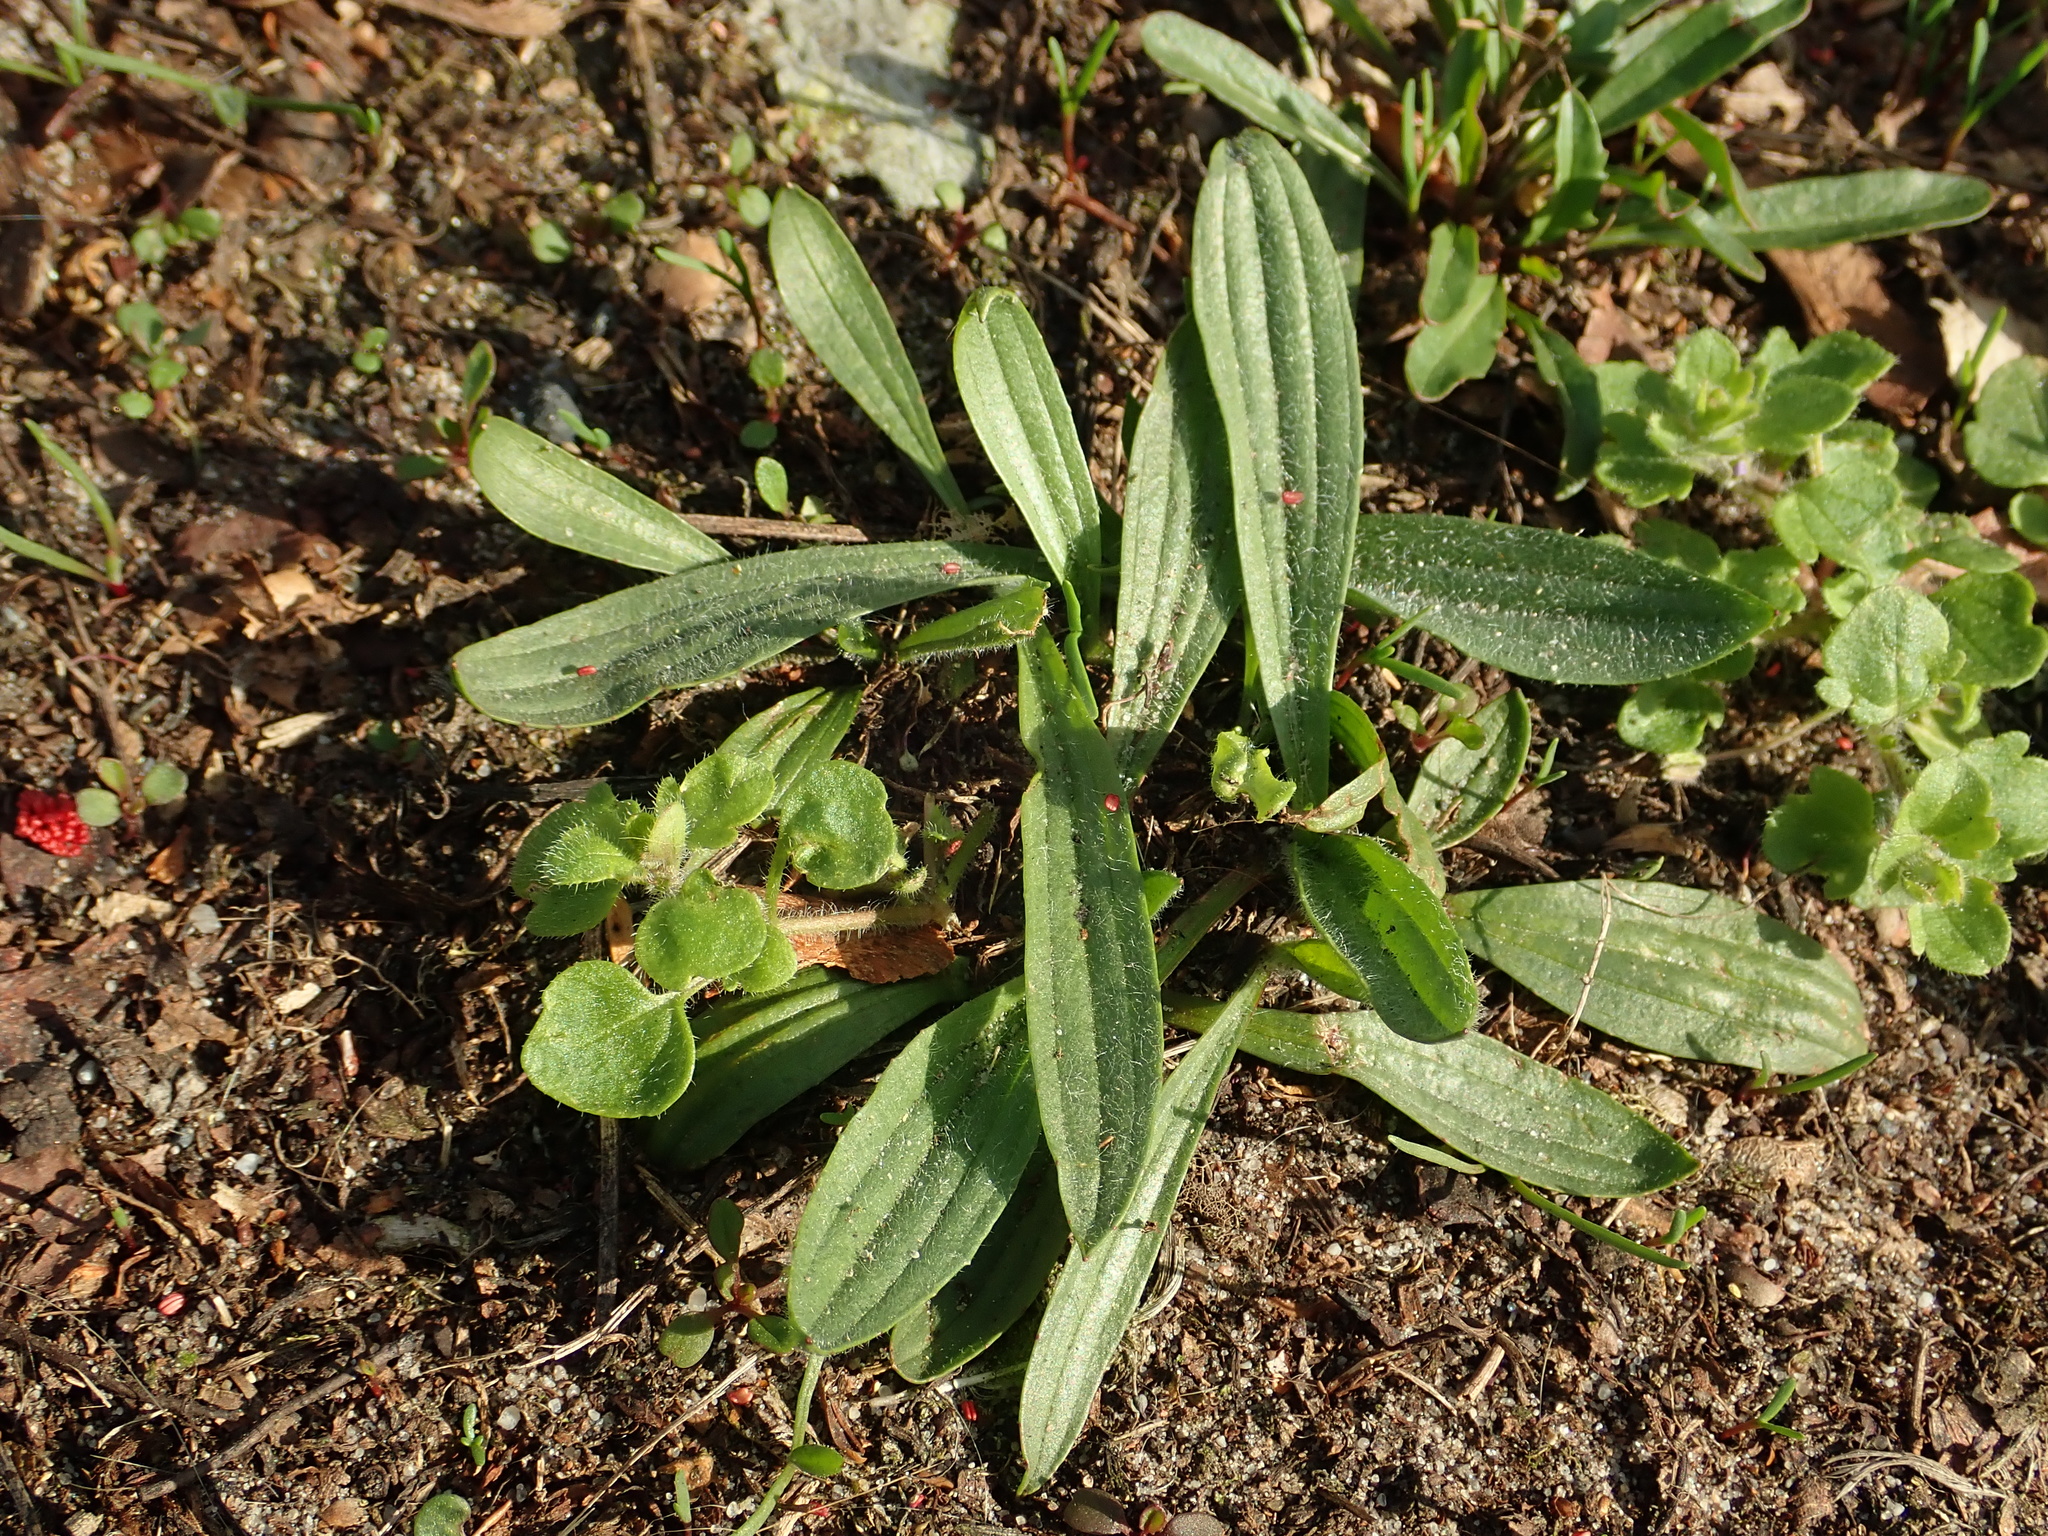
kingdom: Plantae
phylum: Tracheophyta
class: Magnoliopsida
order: Lamiales
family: Plantaginaceae
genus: Plantago
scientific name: Plantago lanceolata
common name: Ribwort plantain
